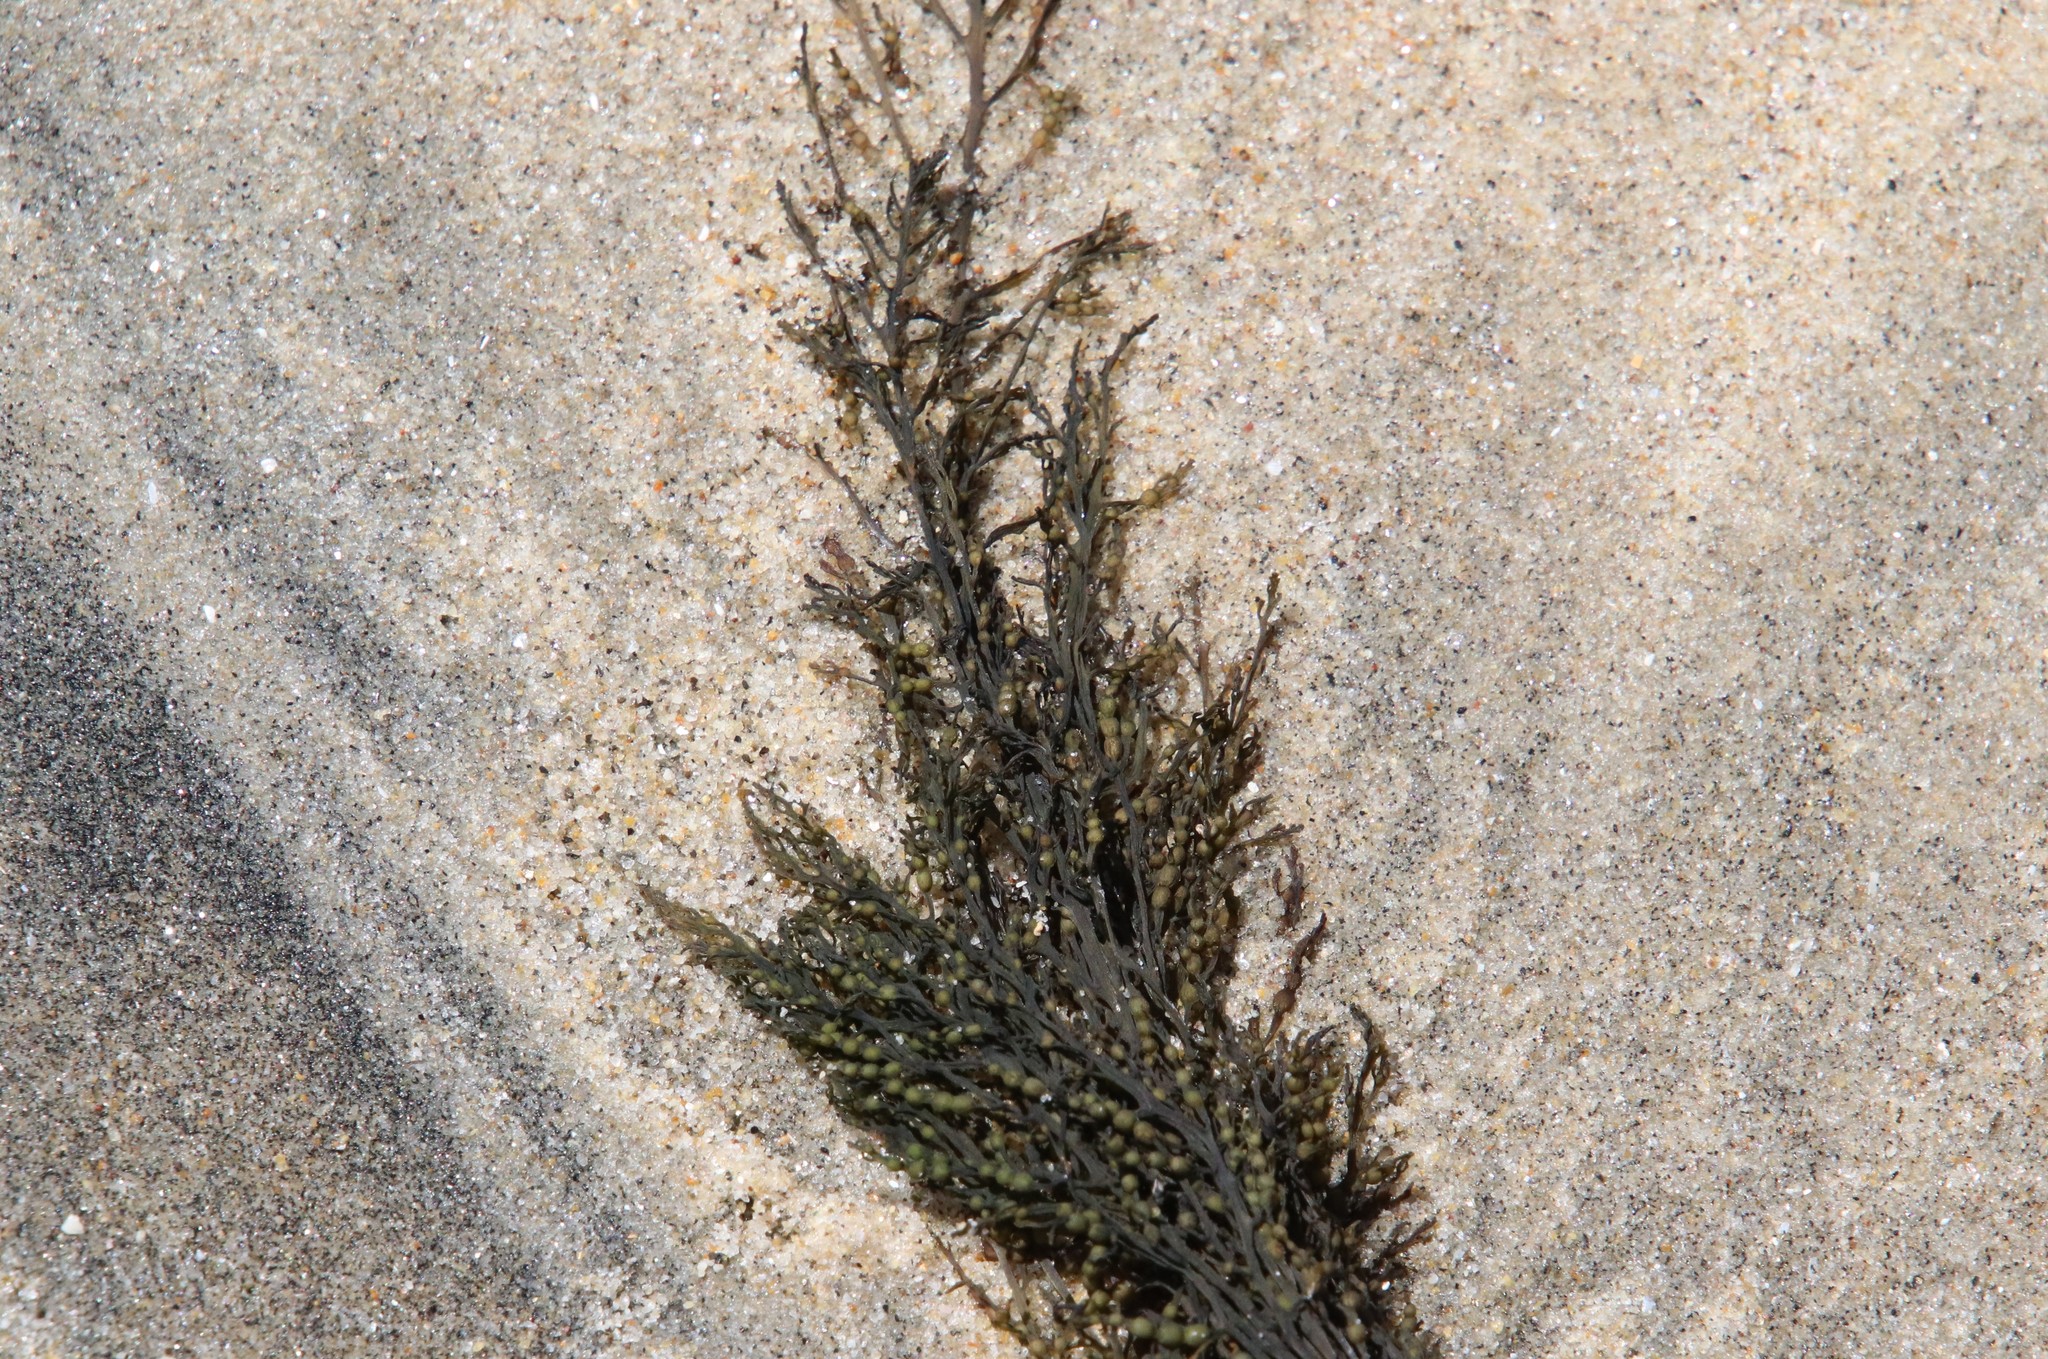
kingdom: Chromista
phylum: Ochrophyta
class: Phaeophyceae
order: Fucales
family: Sargassaceae
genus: Sargassum
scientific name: Sargassum muticum
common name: Japweed
